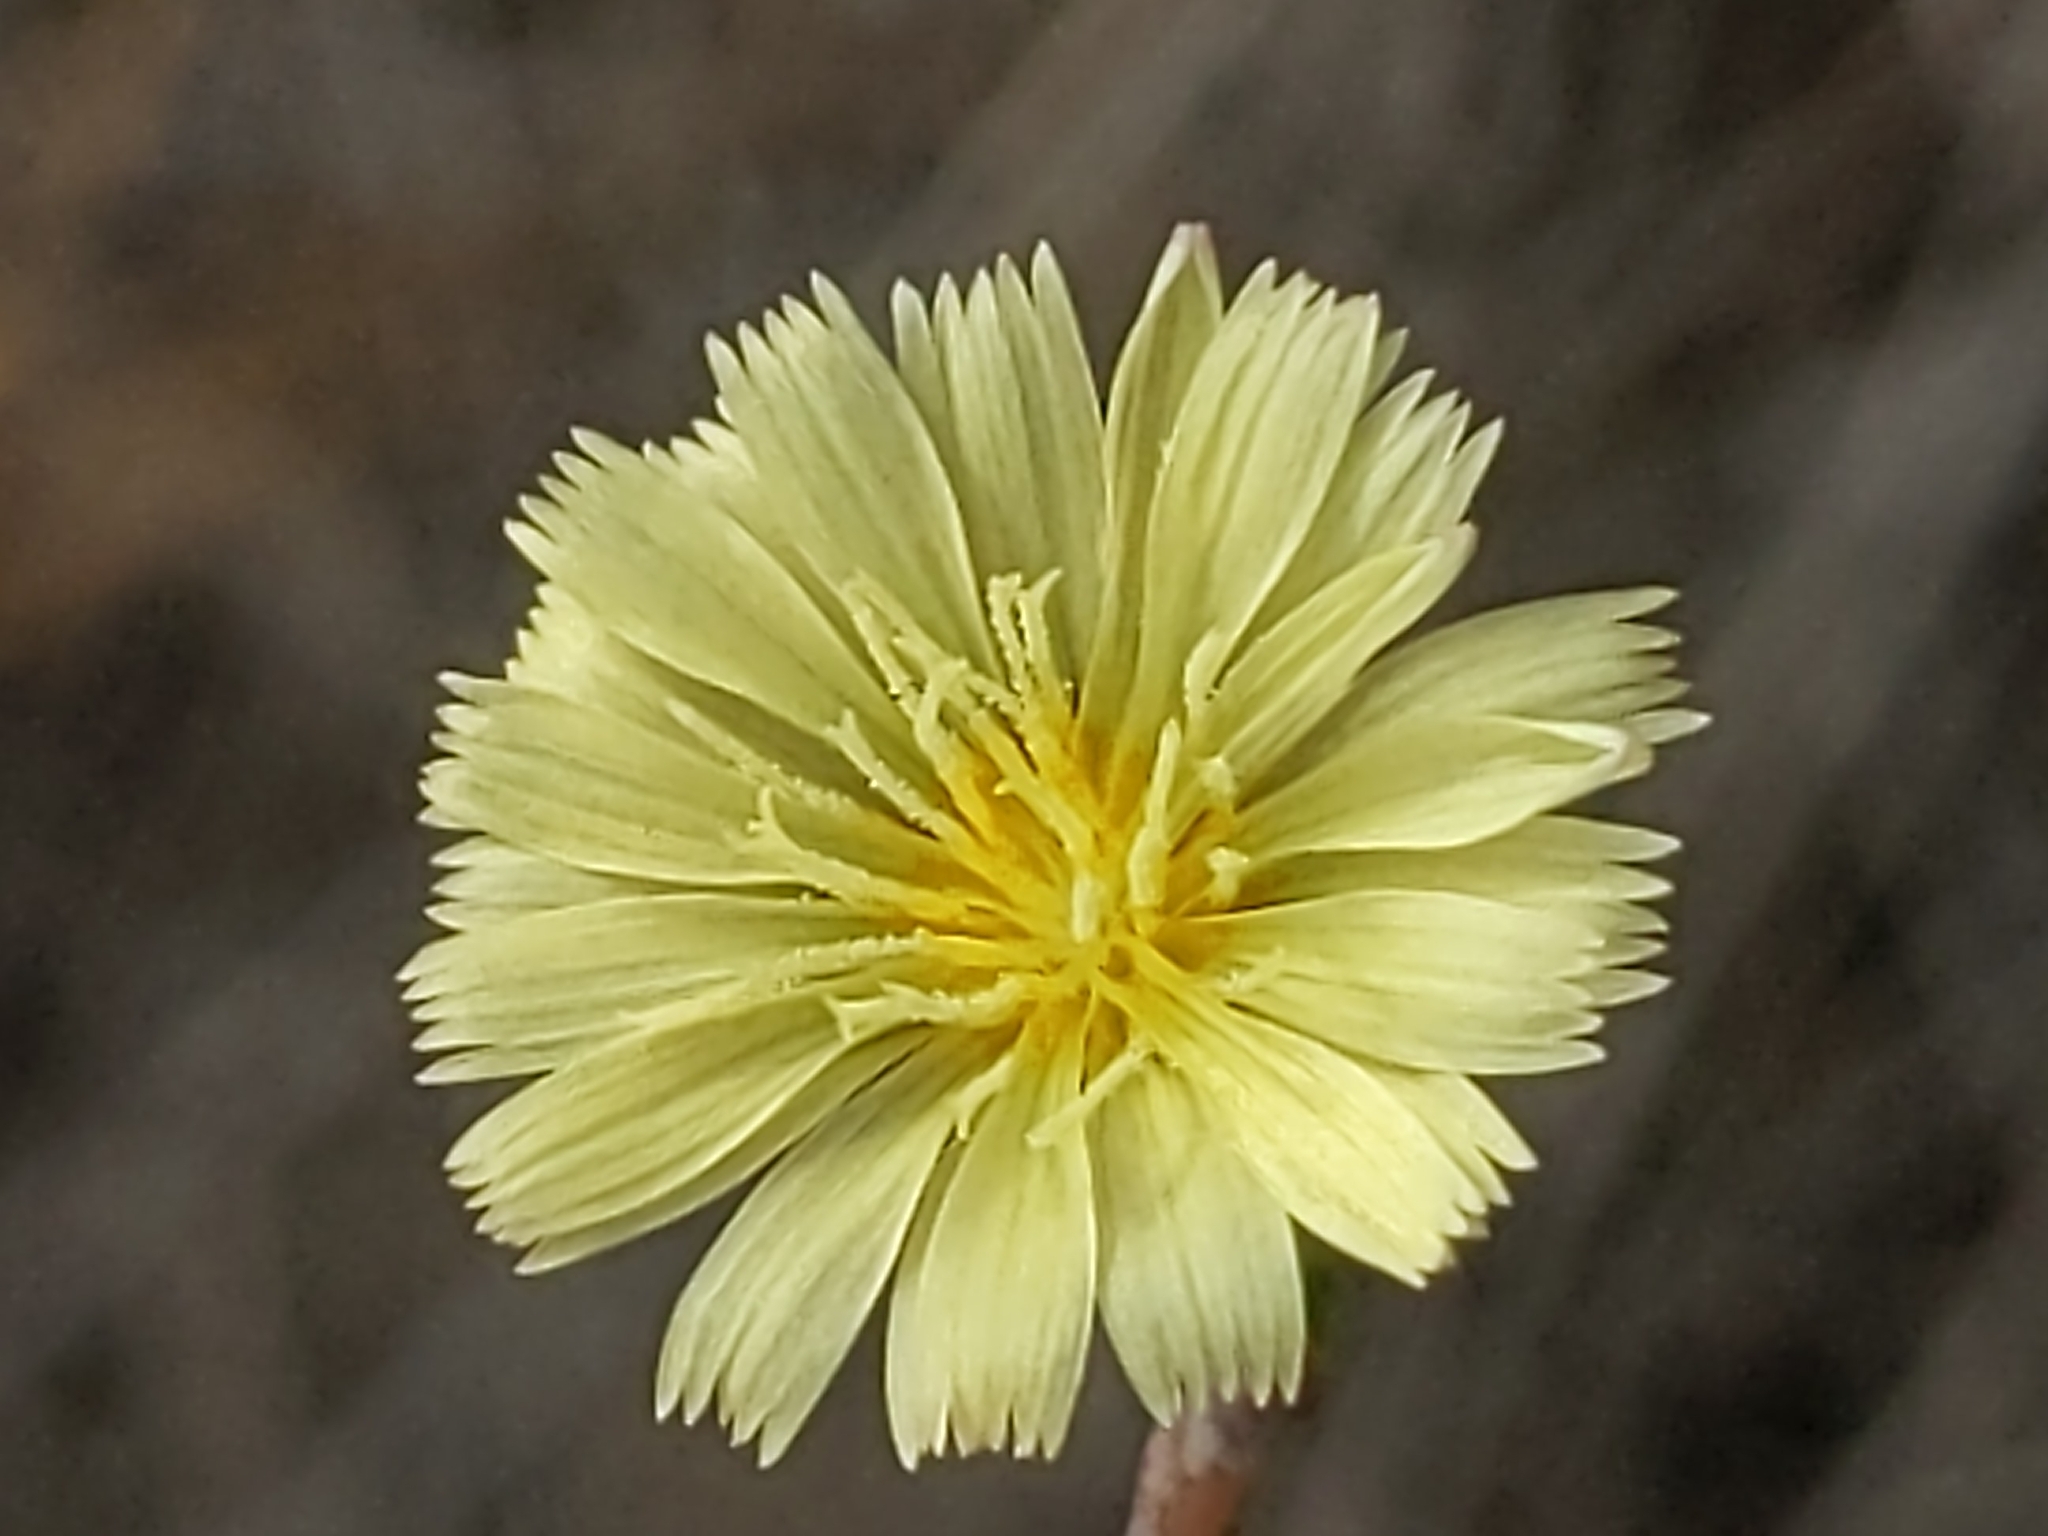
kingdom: Plantae
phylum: Tracheophyta
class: Magnoliopsida
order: Asterales
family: Asteraceae
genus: Lactuca
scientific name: Lactuca serriola
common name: Prickly lettuce
